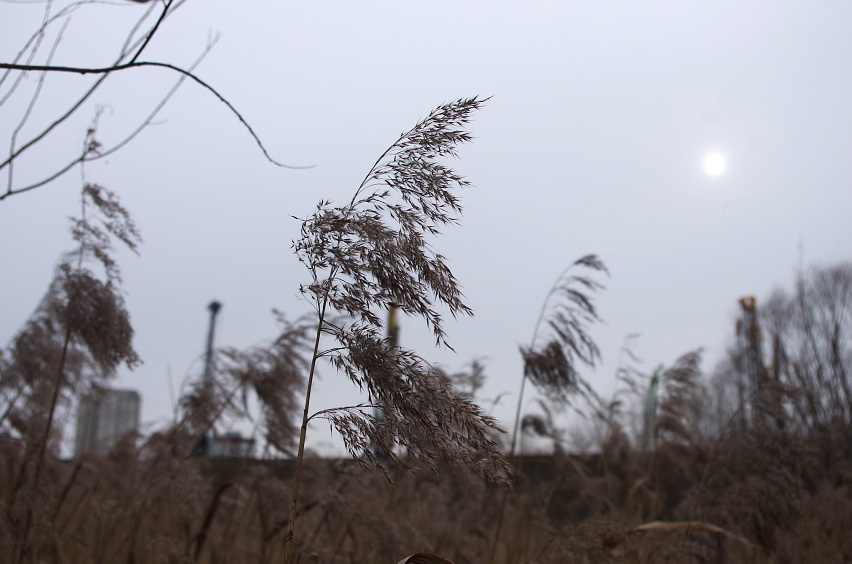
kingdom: Plantae
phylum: Tracheophyta
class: Liliopsida
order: Poales
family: Poaceae
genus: Phragmites
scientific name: Phragmites australis
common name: Common reed
